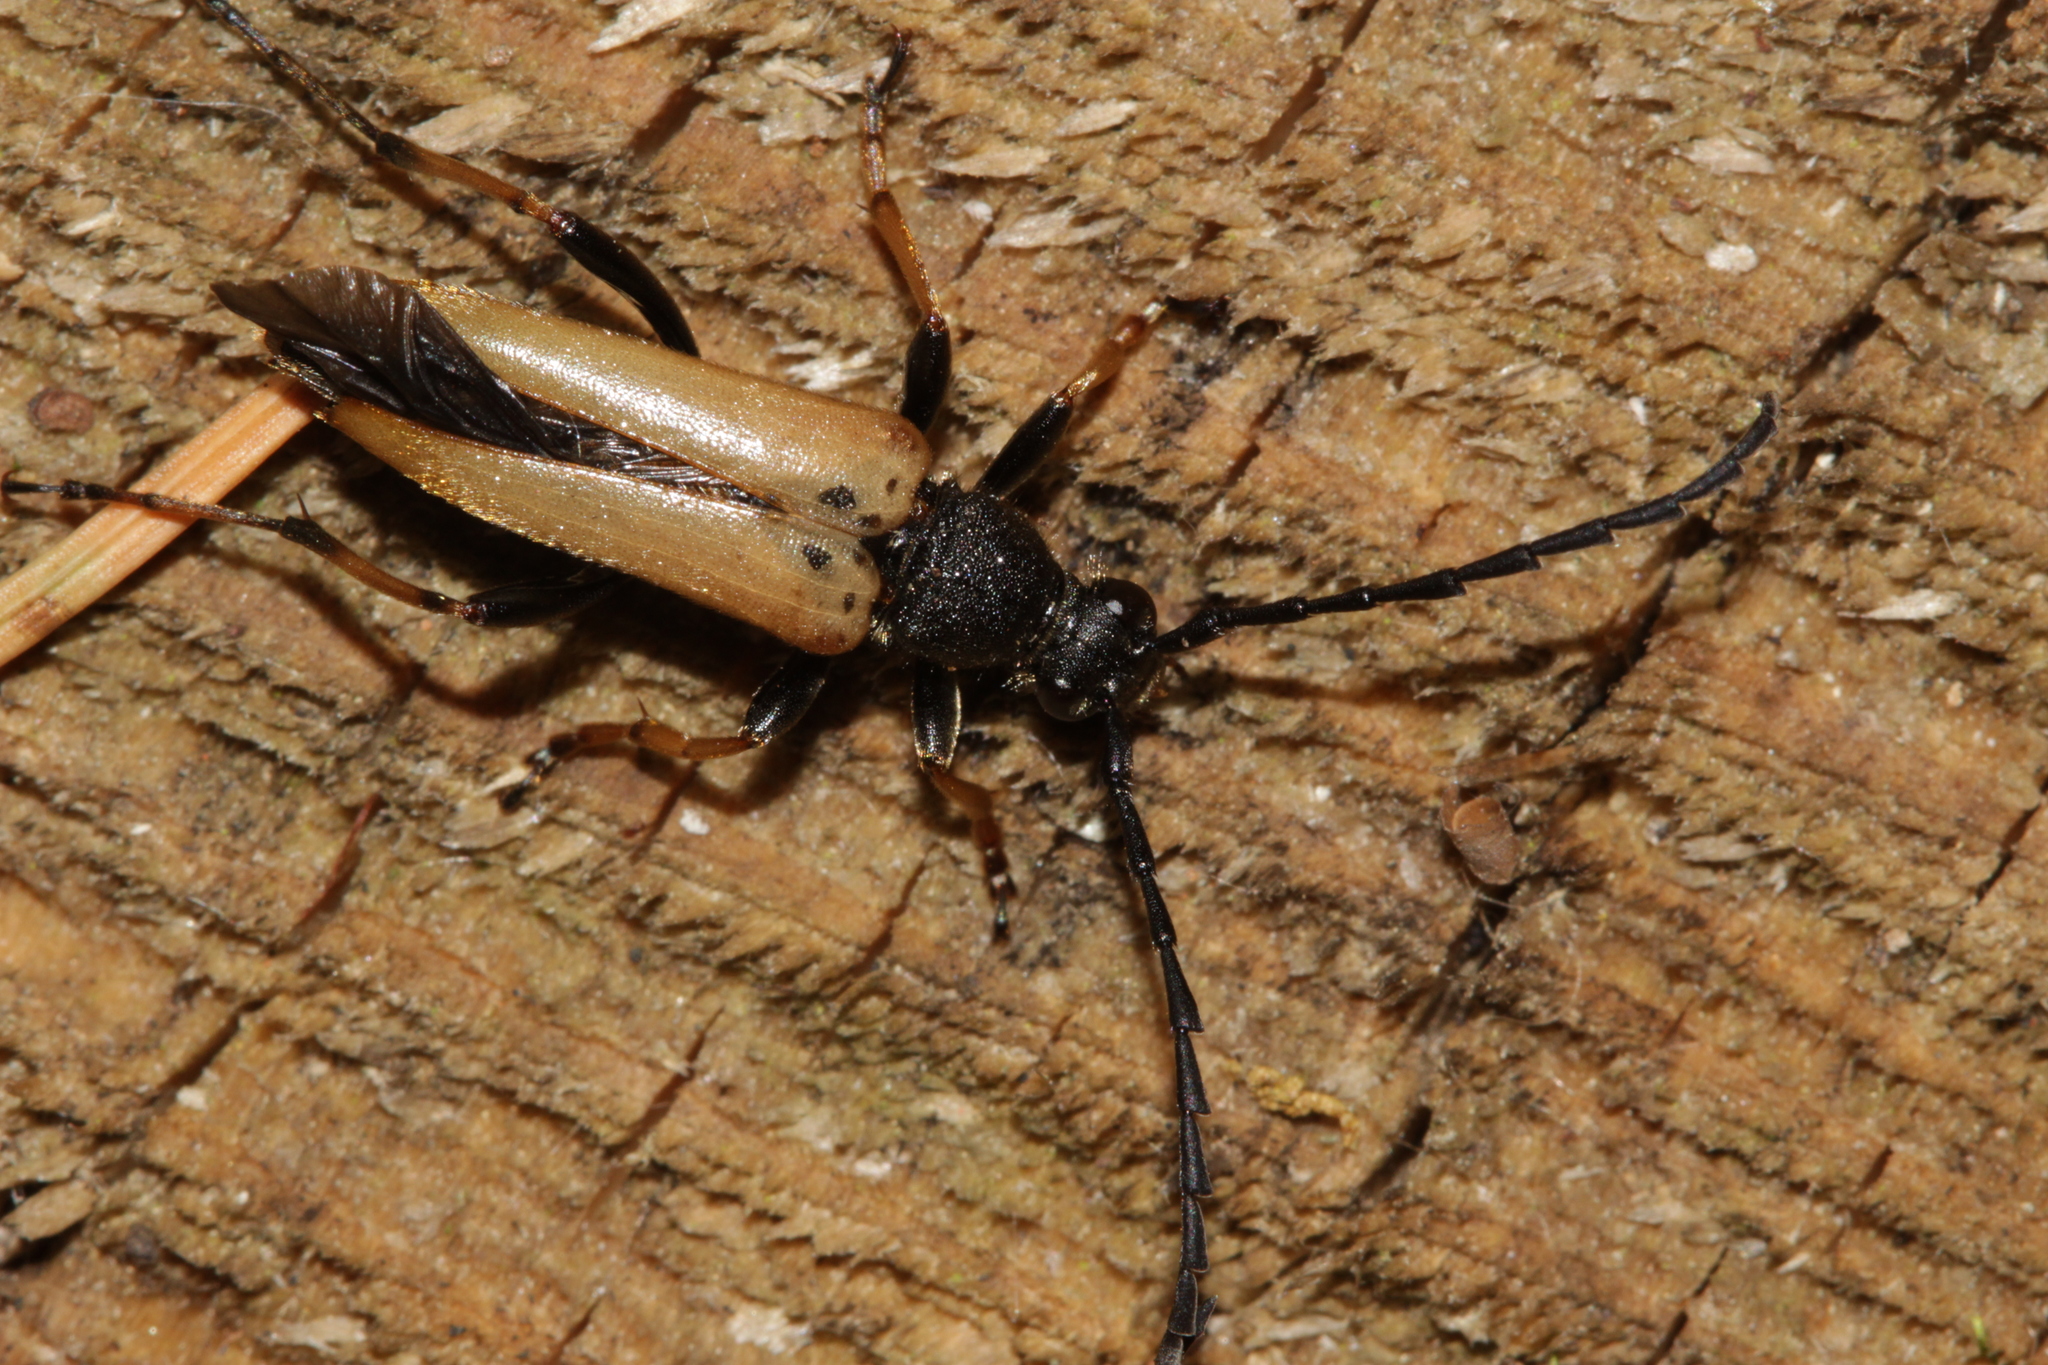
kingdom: Animalia
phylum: Arthropoda
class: Insecta
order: Coleoptera
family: Cerambycidae
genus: Stictoleptura
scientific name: Stictoleptura rubra
